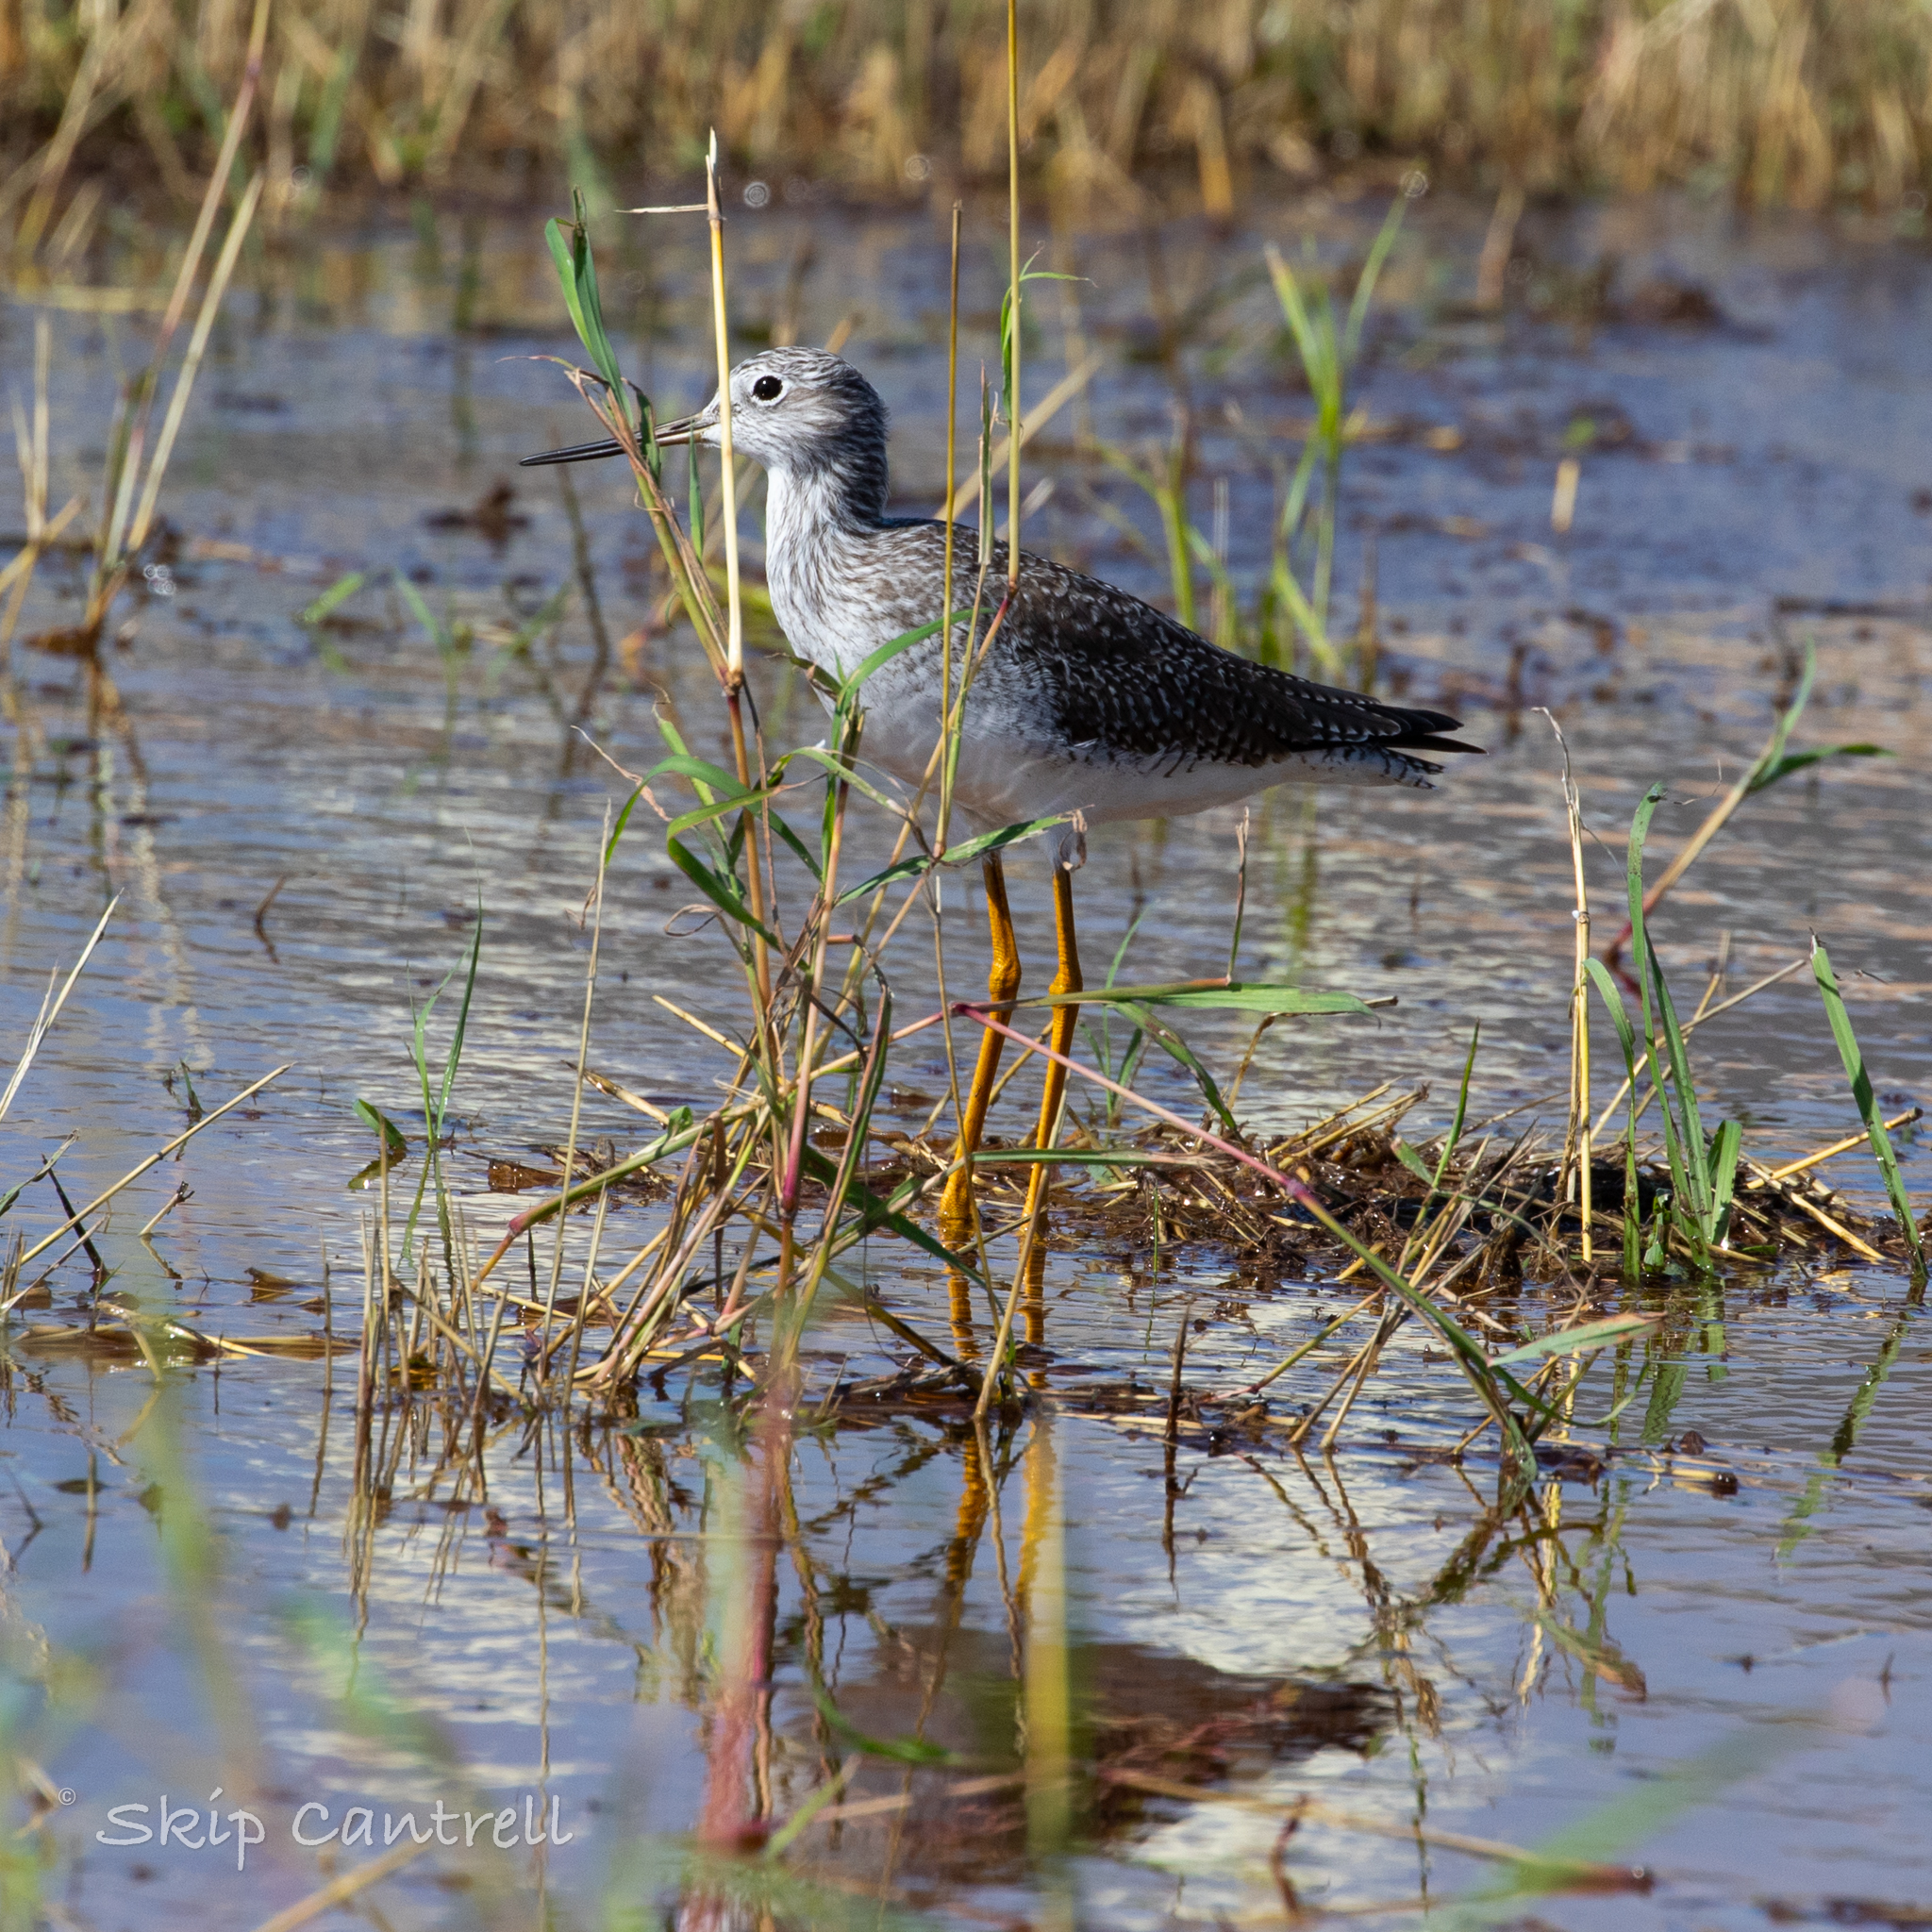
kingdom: Animalia
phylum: Chordata
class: Aves
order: Charadriiformes
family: Scolopacidae
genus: Tringa
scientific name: Tringa melanoleuca
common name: Greater yellowlegs
